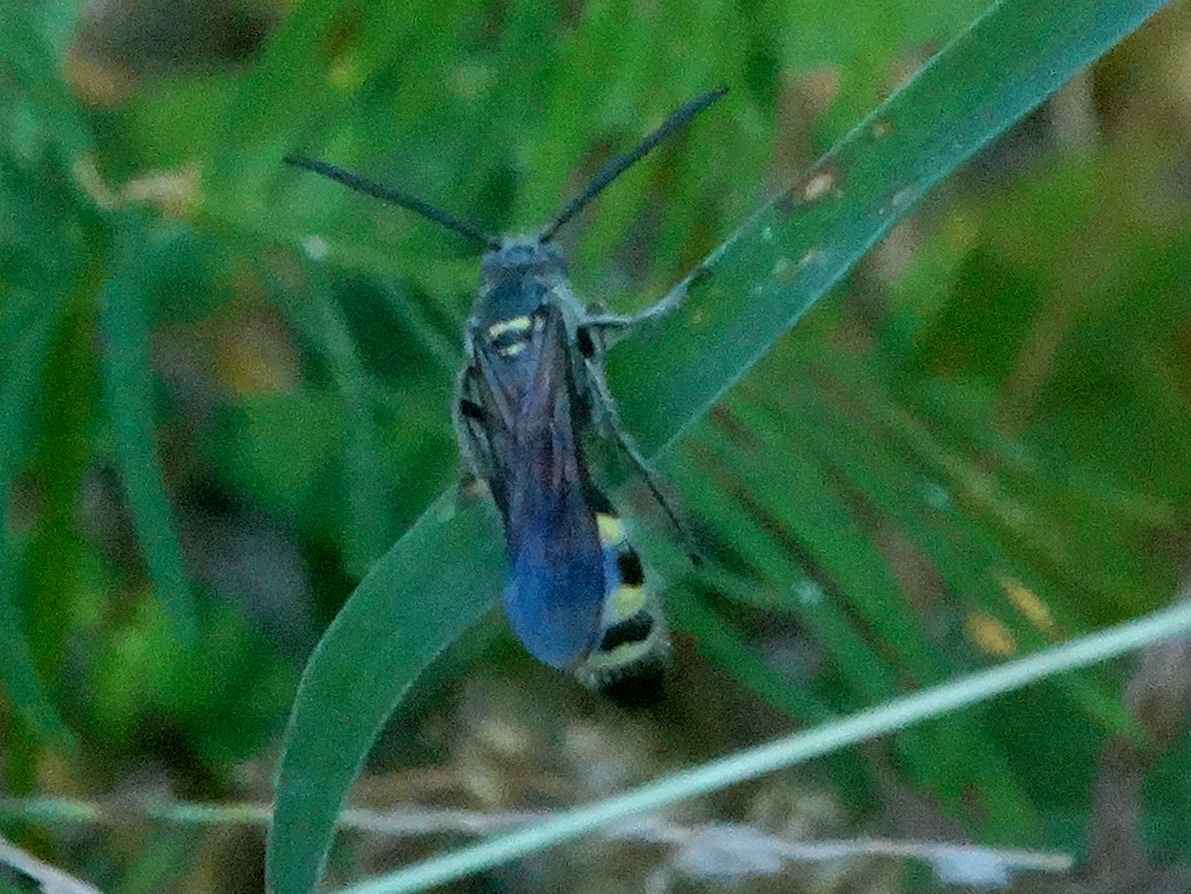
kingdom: Animalia
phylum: Arthropoda
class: Insecta
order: Hymenoptera
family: Scoliidae
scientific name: Scoliidae
